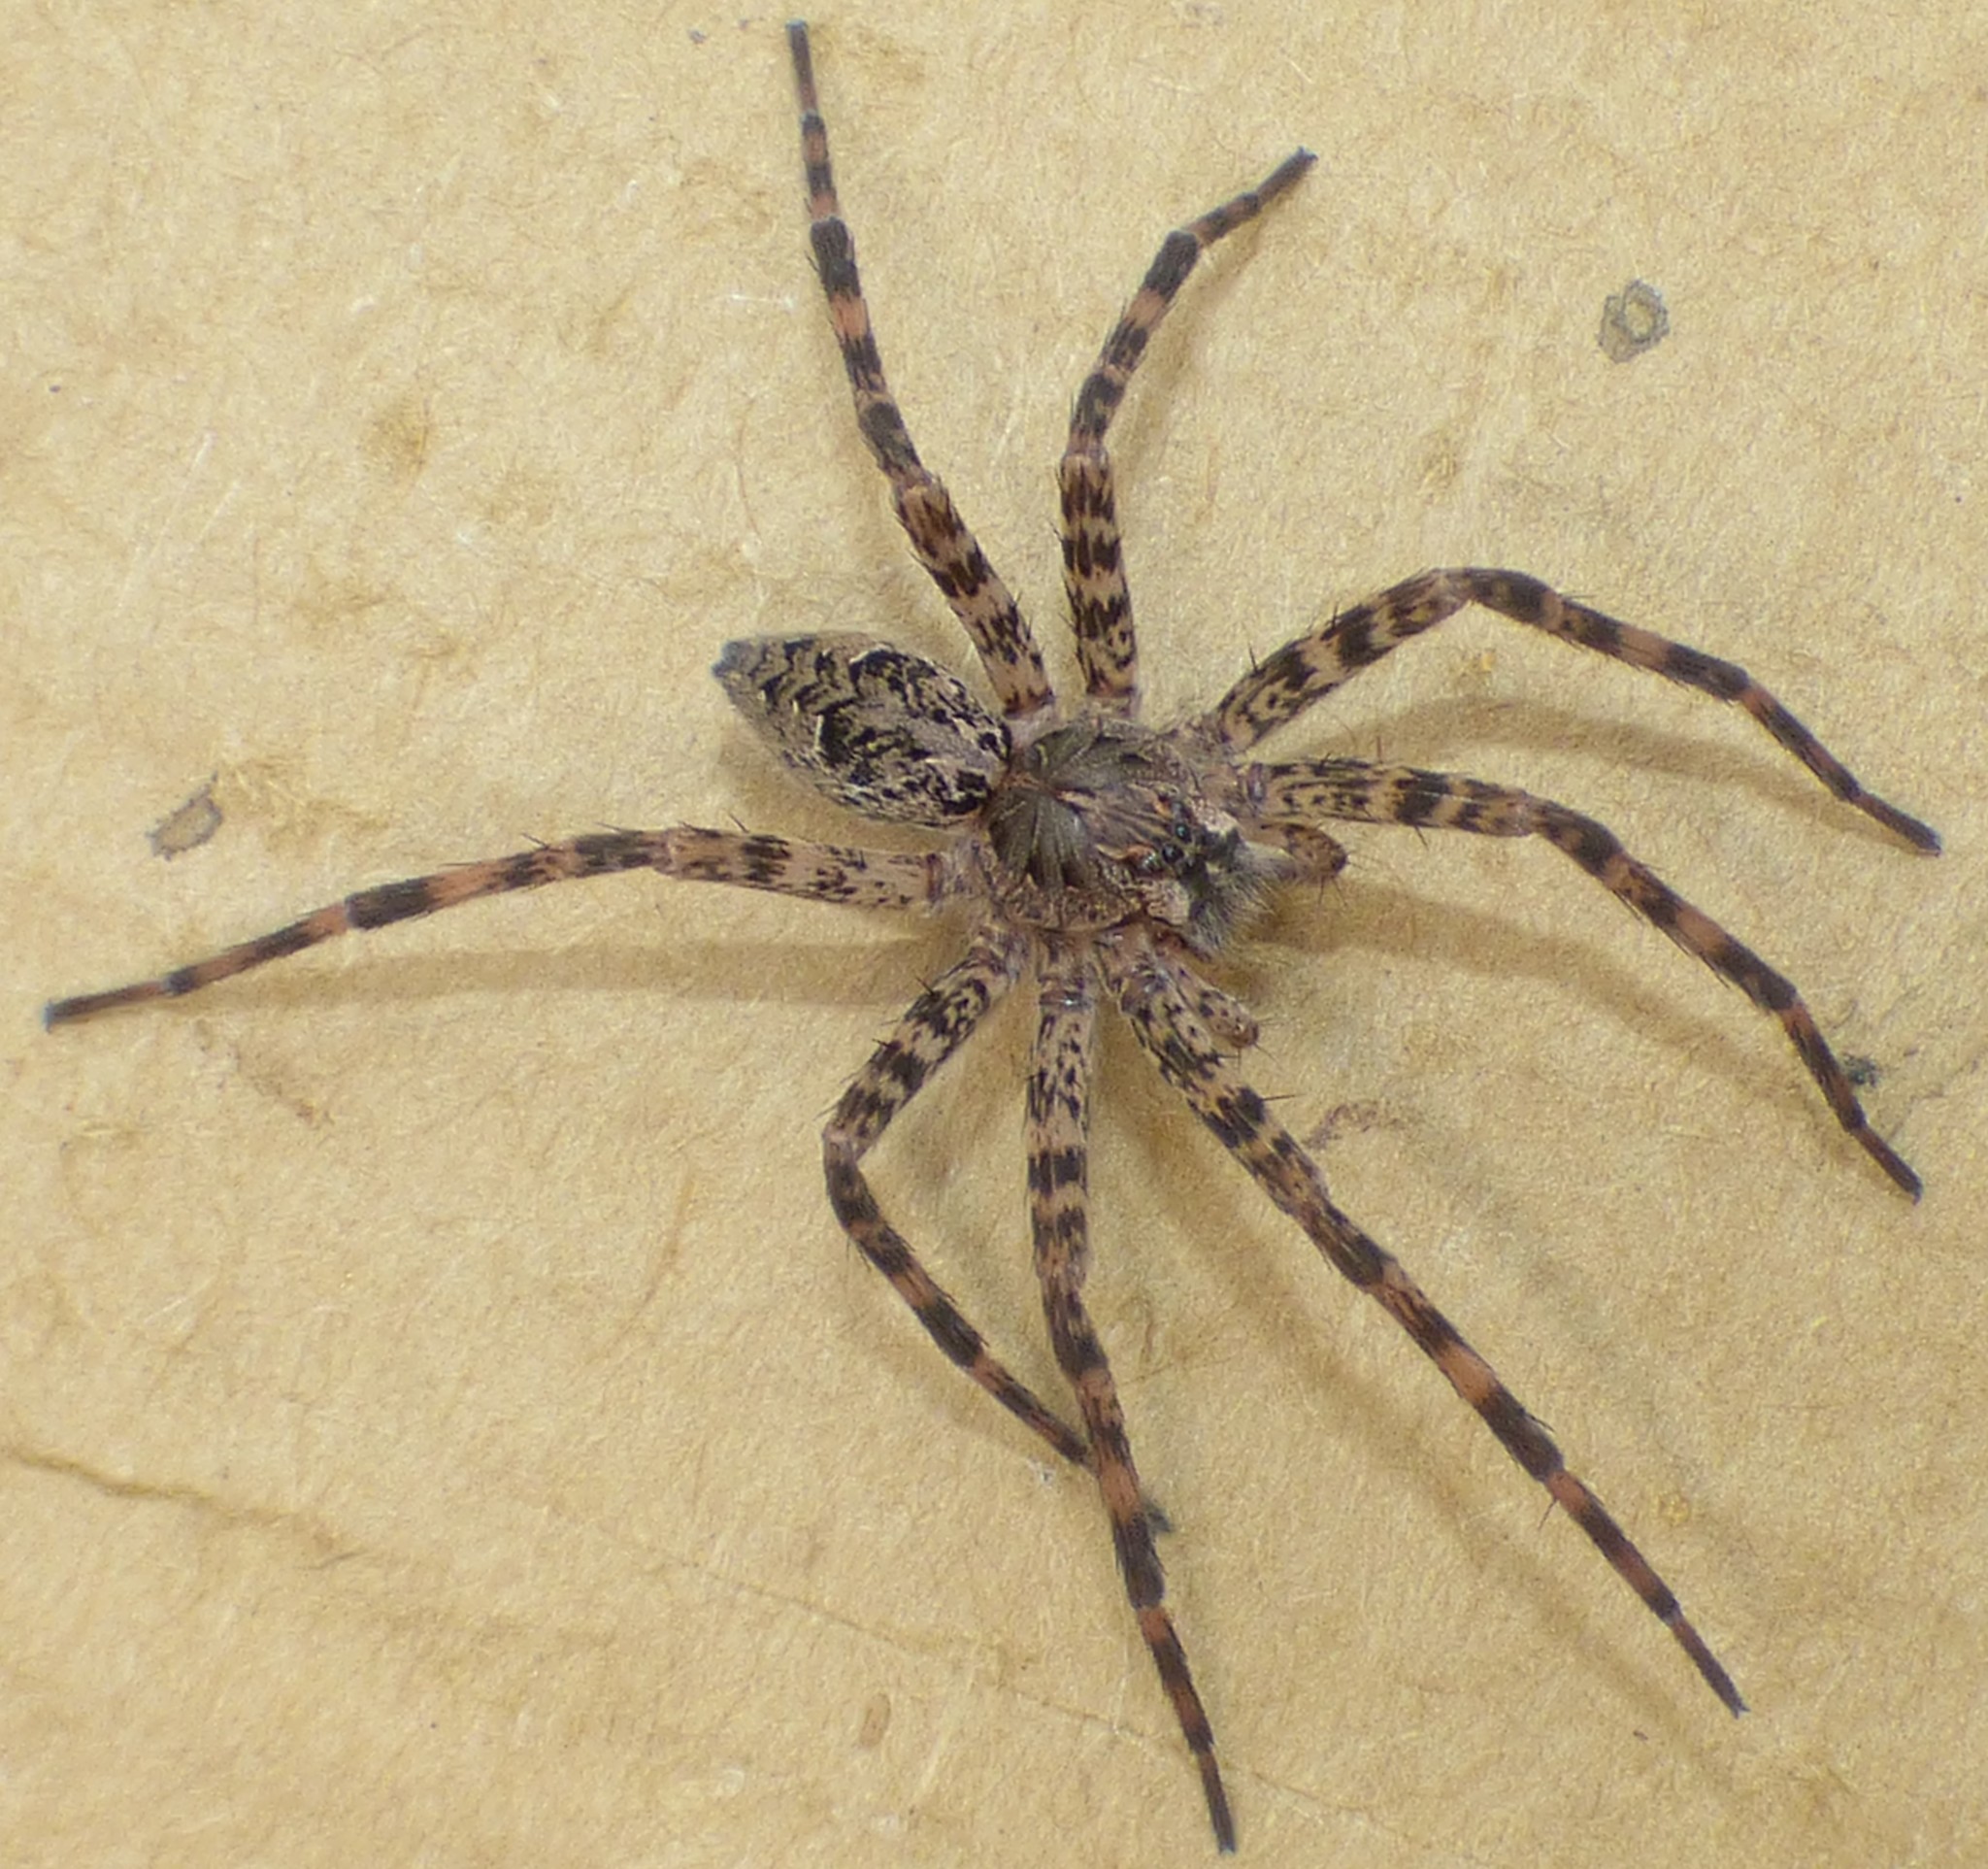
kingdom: Animalia
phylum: Arthropoda
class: Arachnida
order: Araneae
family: Pisauridae
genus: Dolomedes
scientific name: Dolomedes tenebrosus
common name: Dark fishing spider
